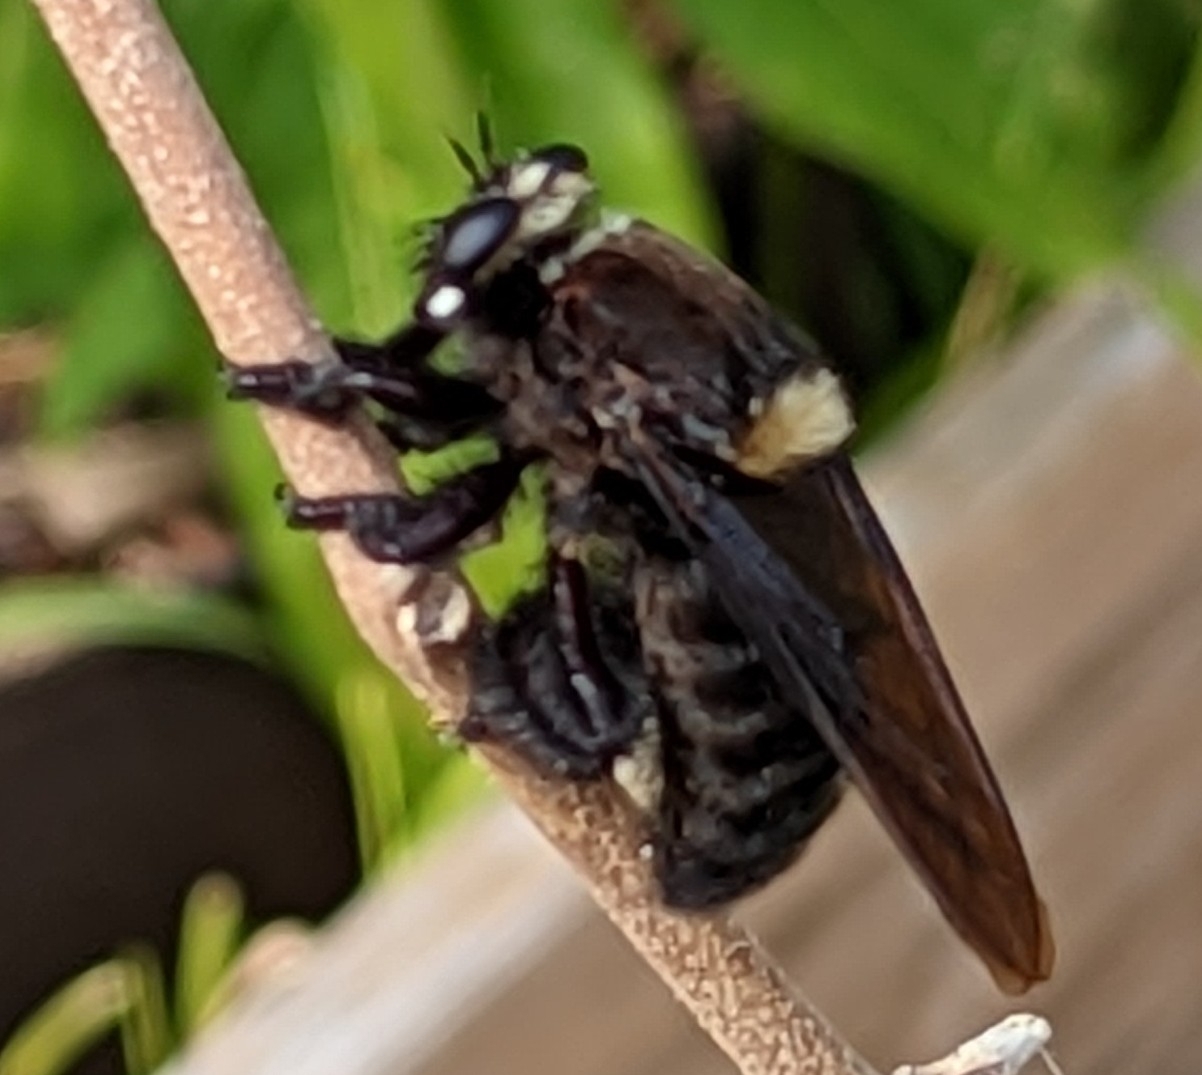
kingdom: Animalia
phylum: Arthropoda
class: Insecta
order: Diptera
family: Asilidae
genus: Mallophora
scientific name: Mallophora leschenaultii
